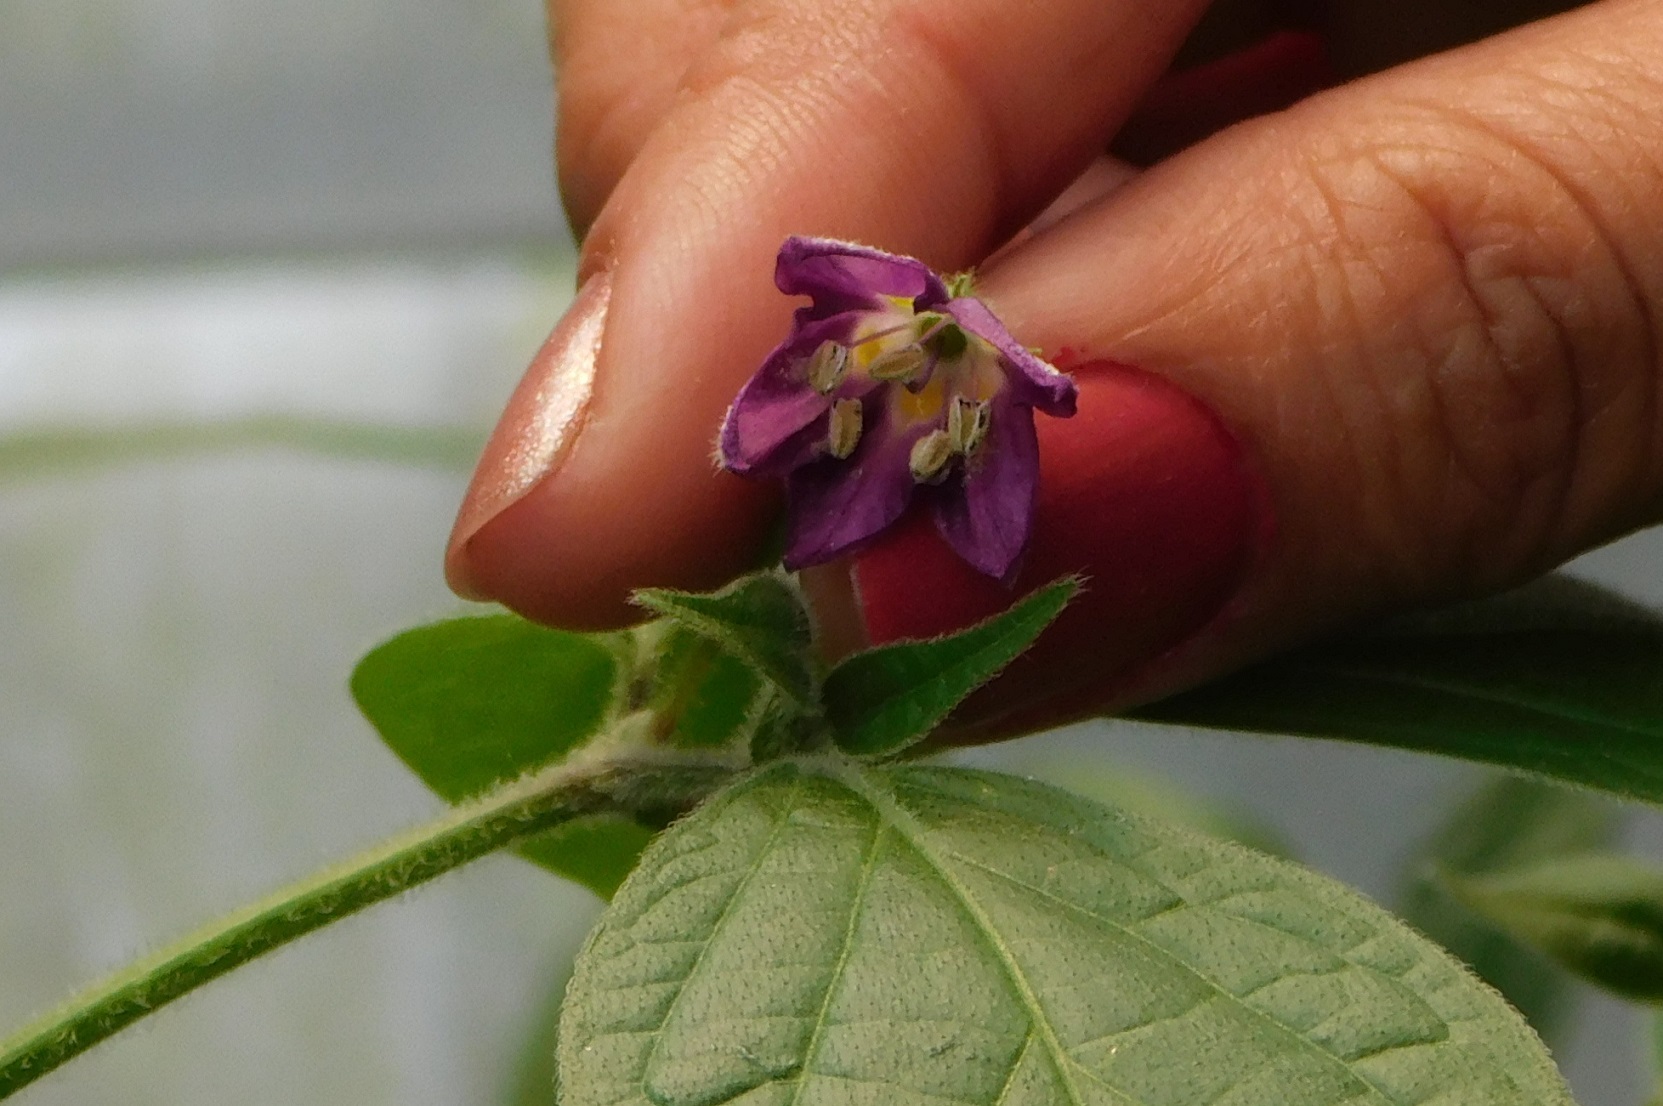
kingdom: Plantae
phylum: Tracheophyta
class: Magnoliopsida
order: Solanales
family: Solanaceae
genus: Capsicum
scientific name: Capsicum pubescens
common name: Apple chile
